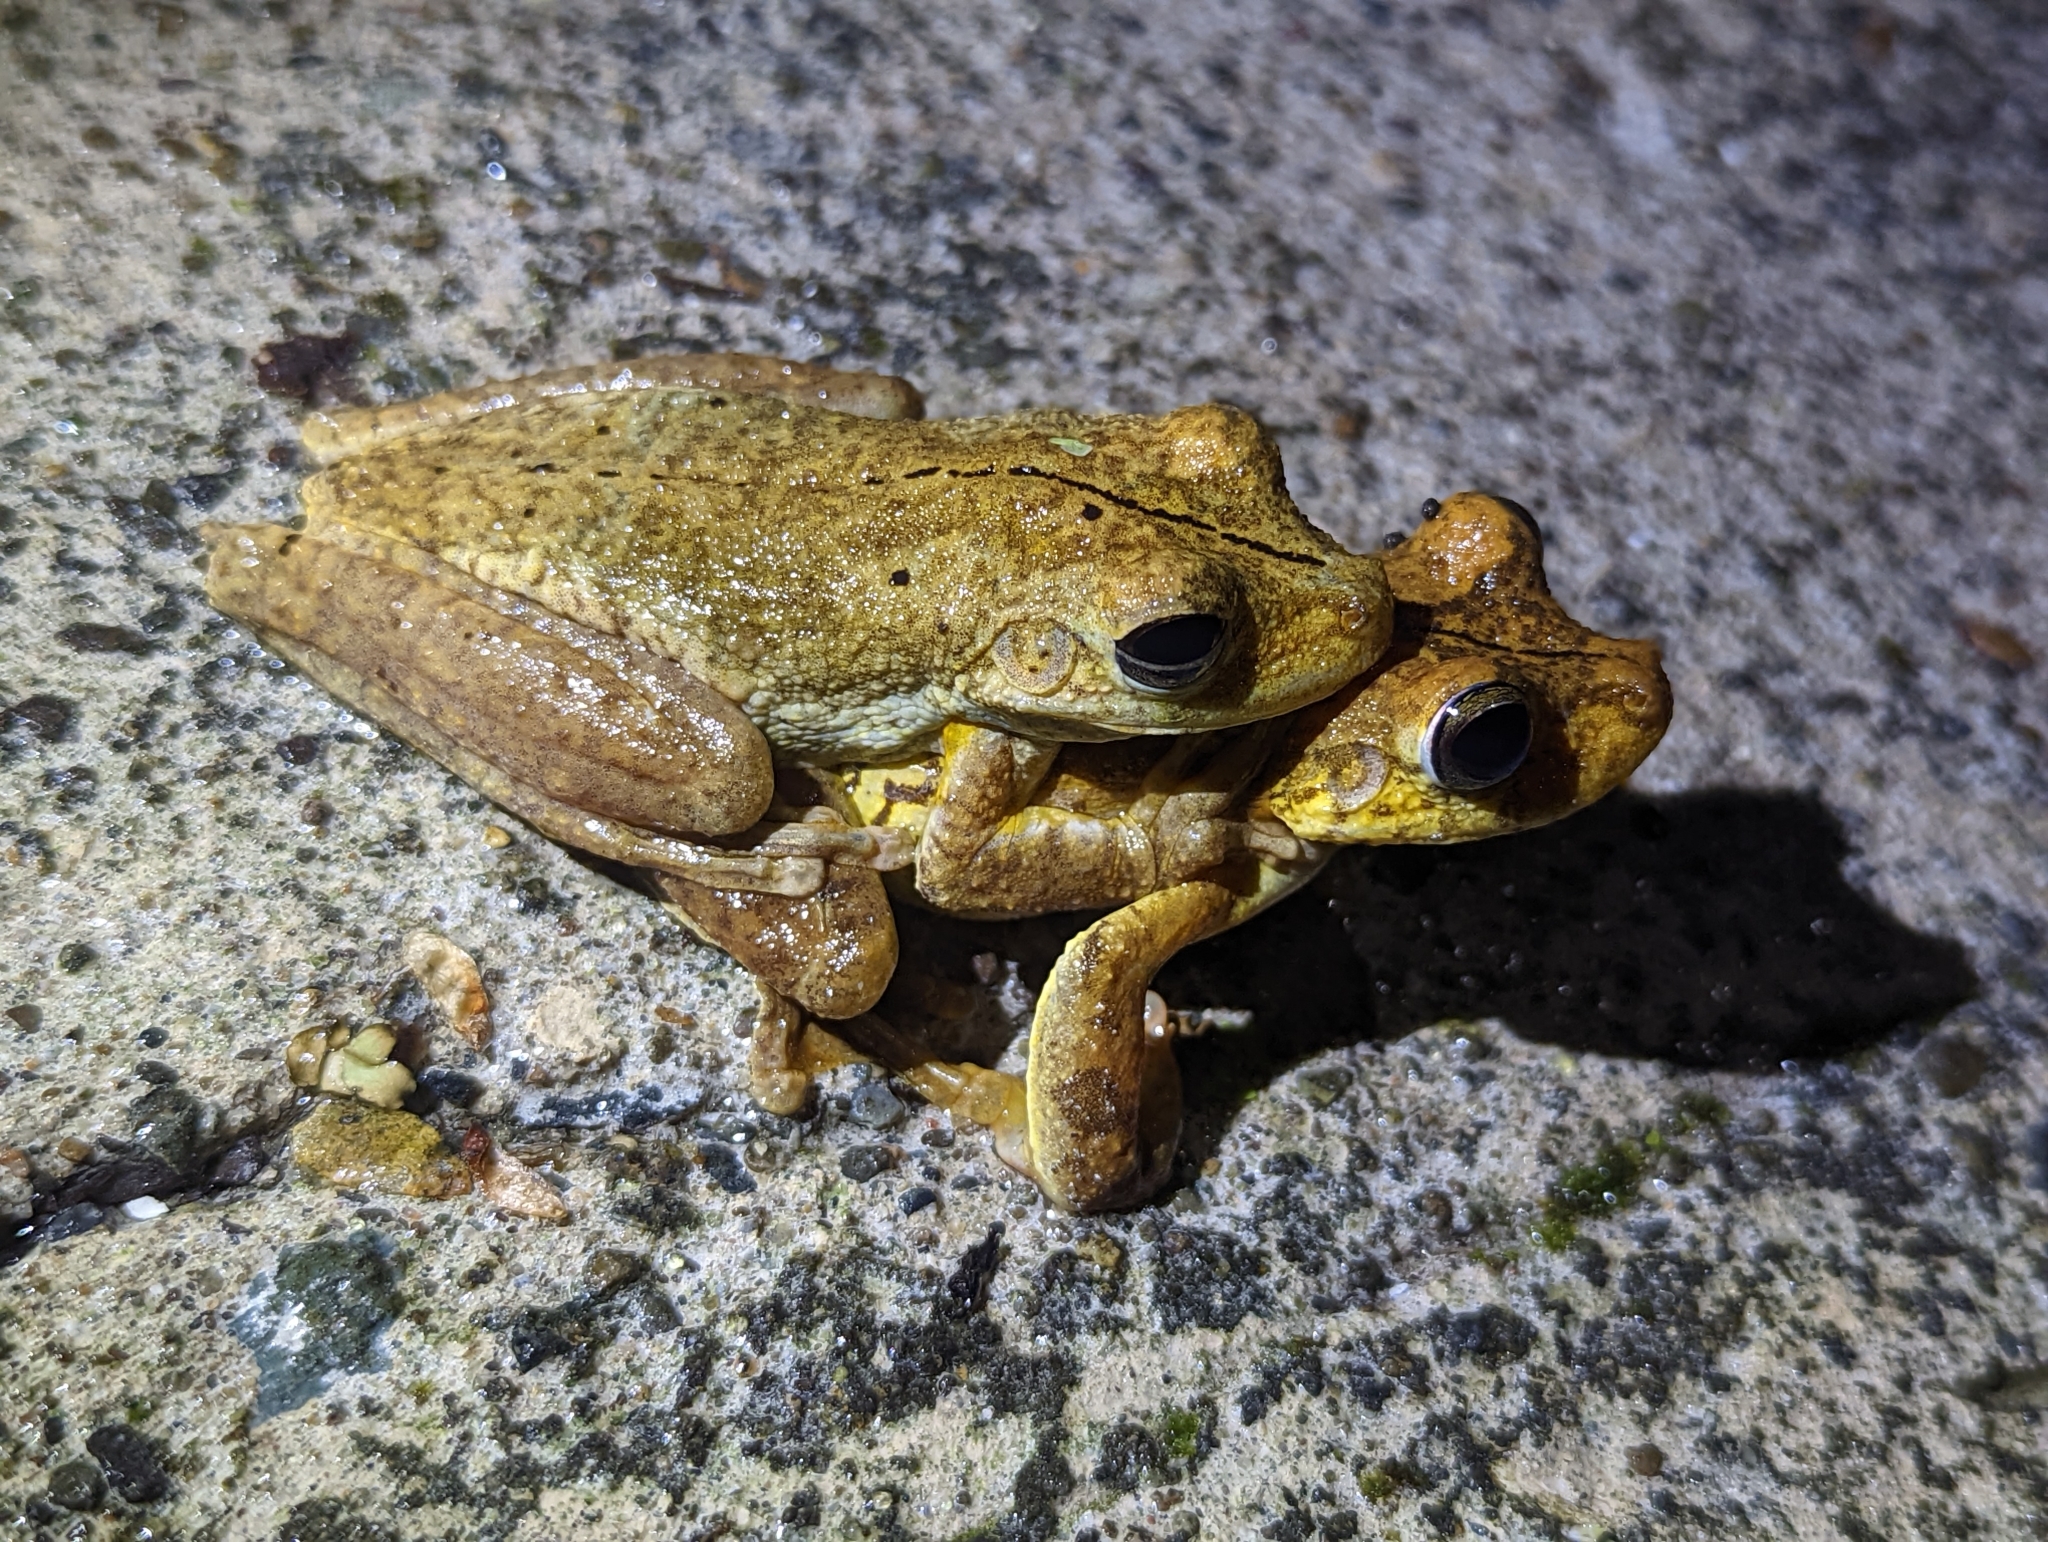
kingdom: Animalia
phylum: Chordata
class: Amphibia
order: Anura
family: Hylidae
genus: Boana
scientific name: Boana rosenbergi
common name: Rosenberg´s gladiator treefrog
